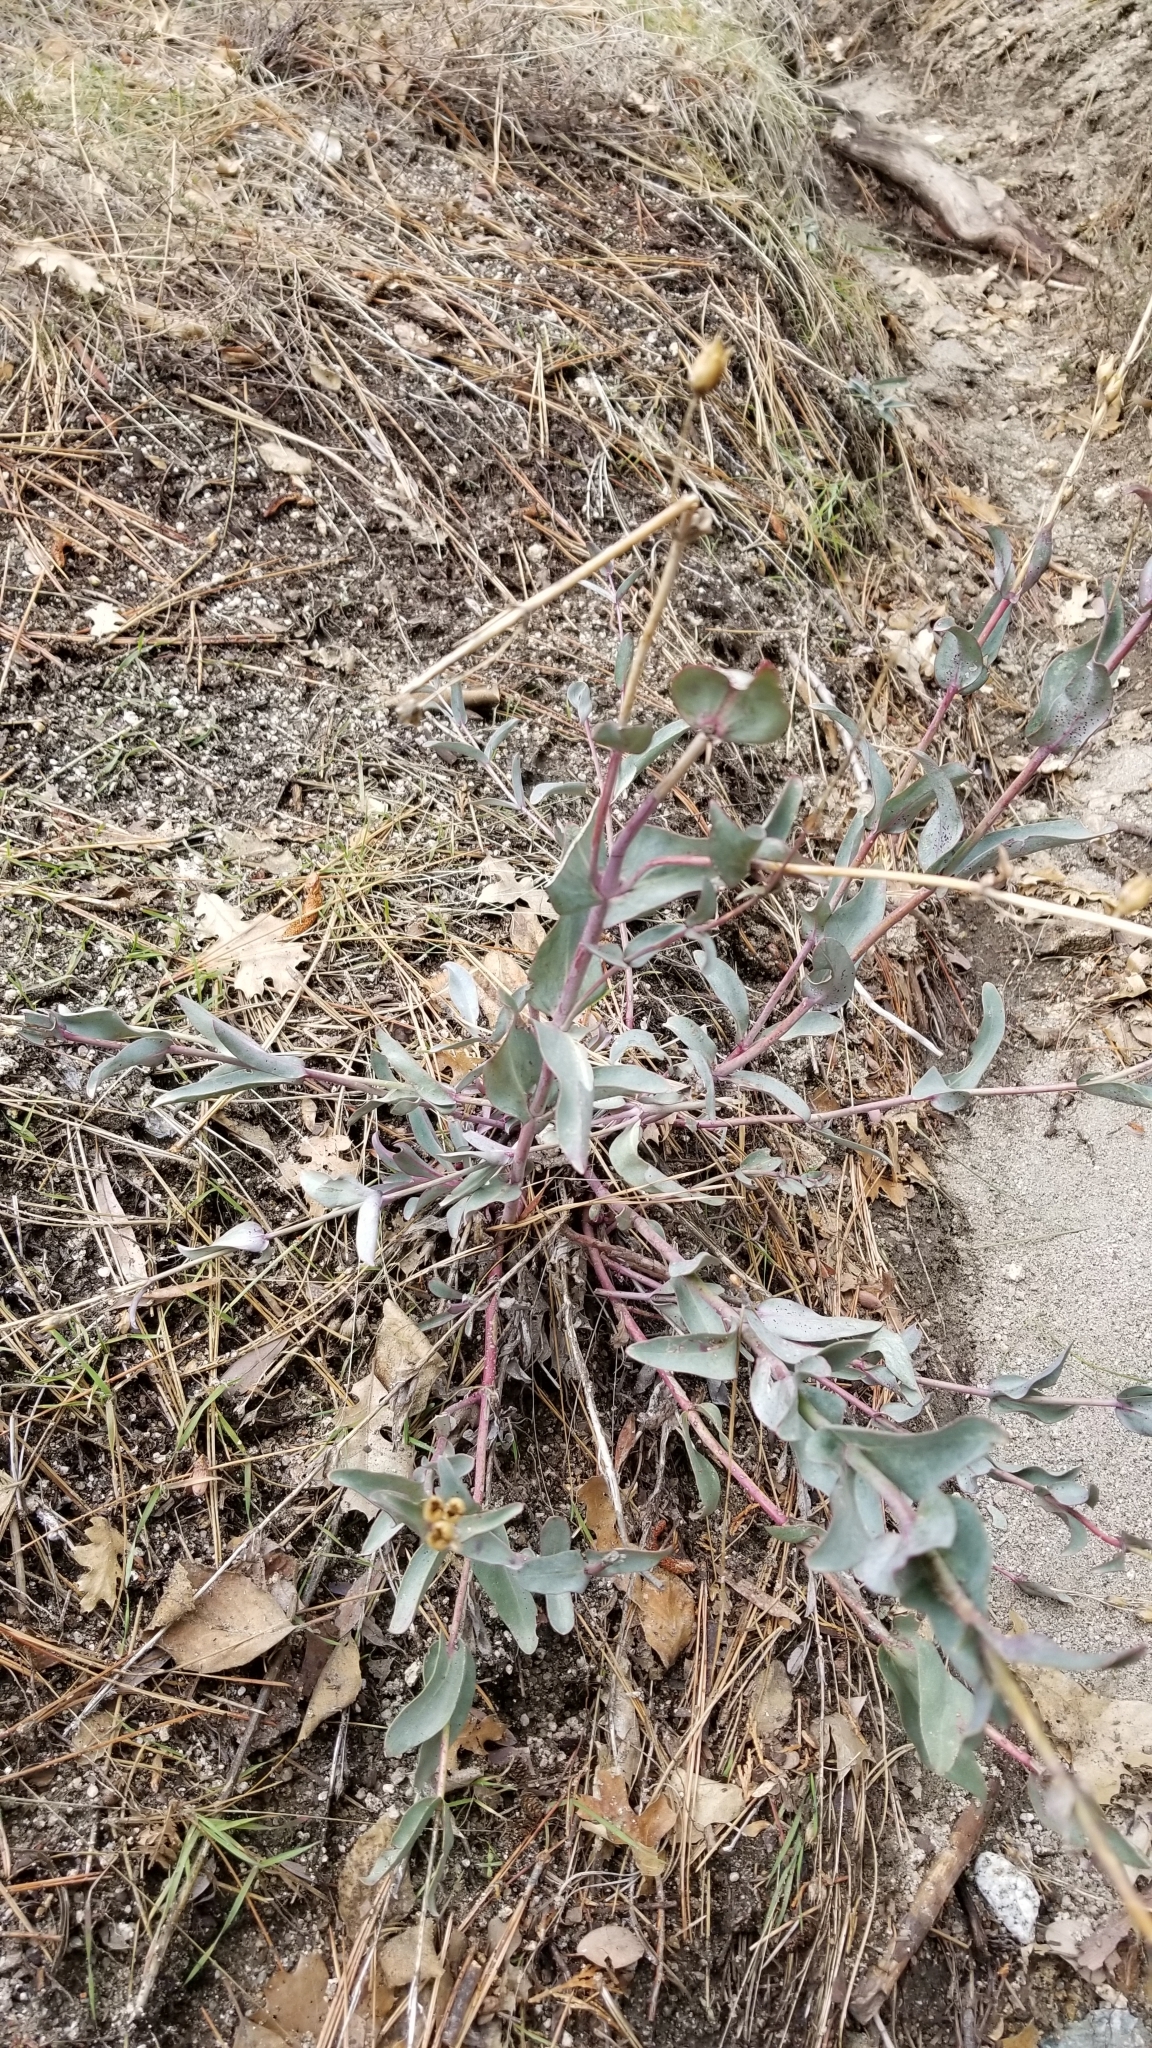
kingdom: Plantae
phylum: Tracheophyta
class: Magnoliopsida
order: Lamiales
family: Plantaginaceae
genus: Penstemon
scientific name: Penstemon centranthifolius
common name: Scarlet bugler
